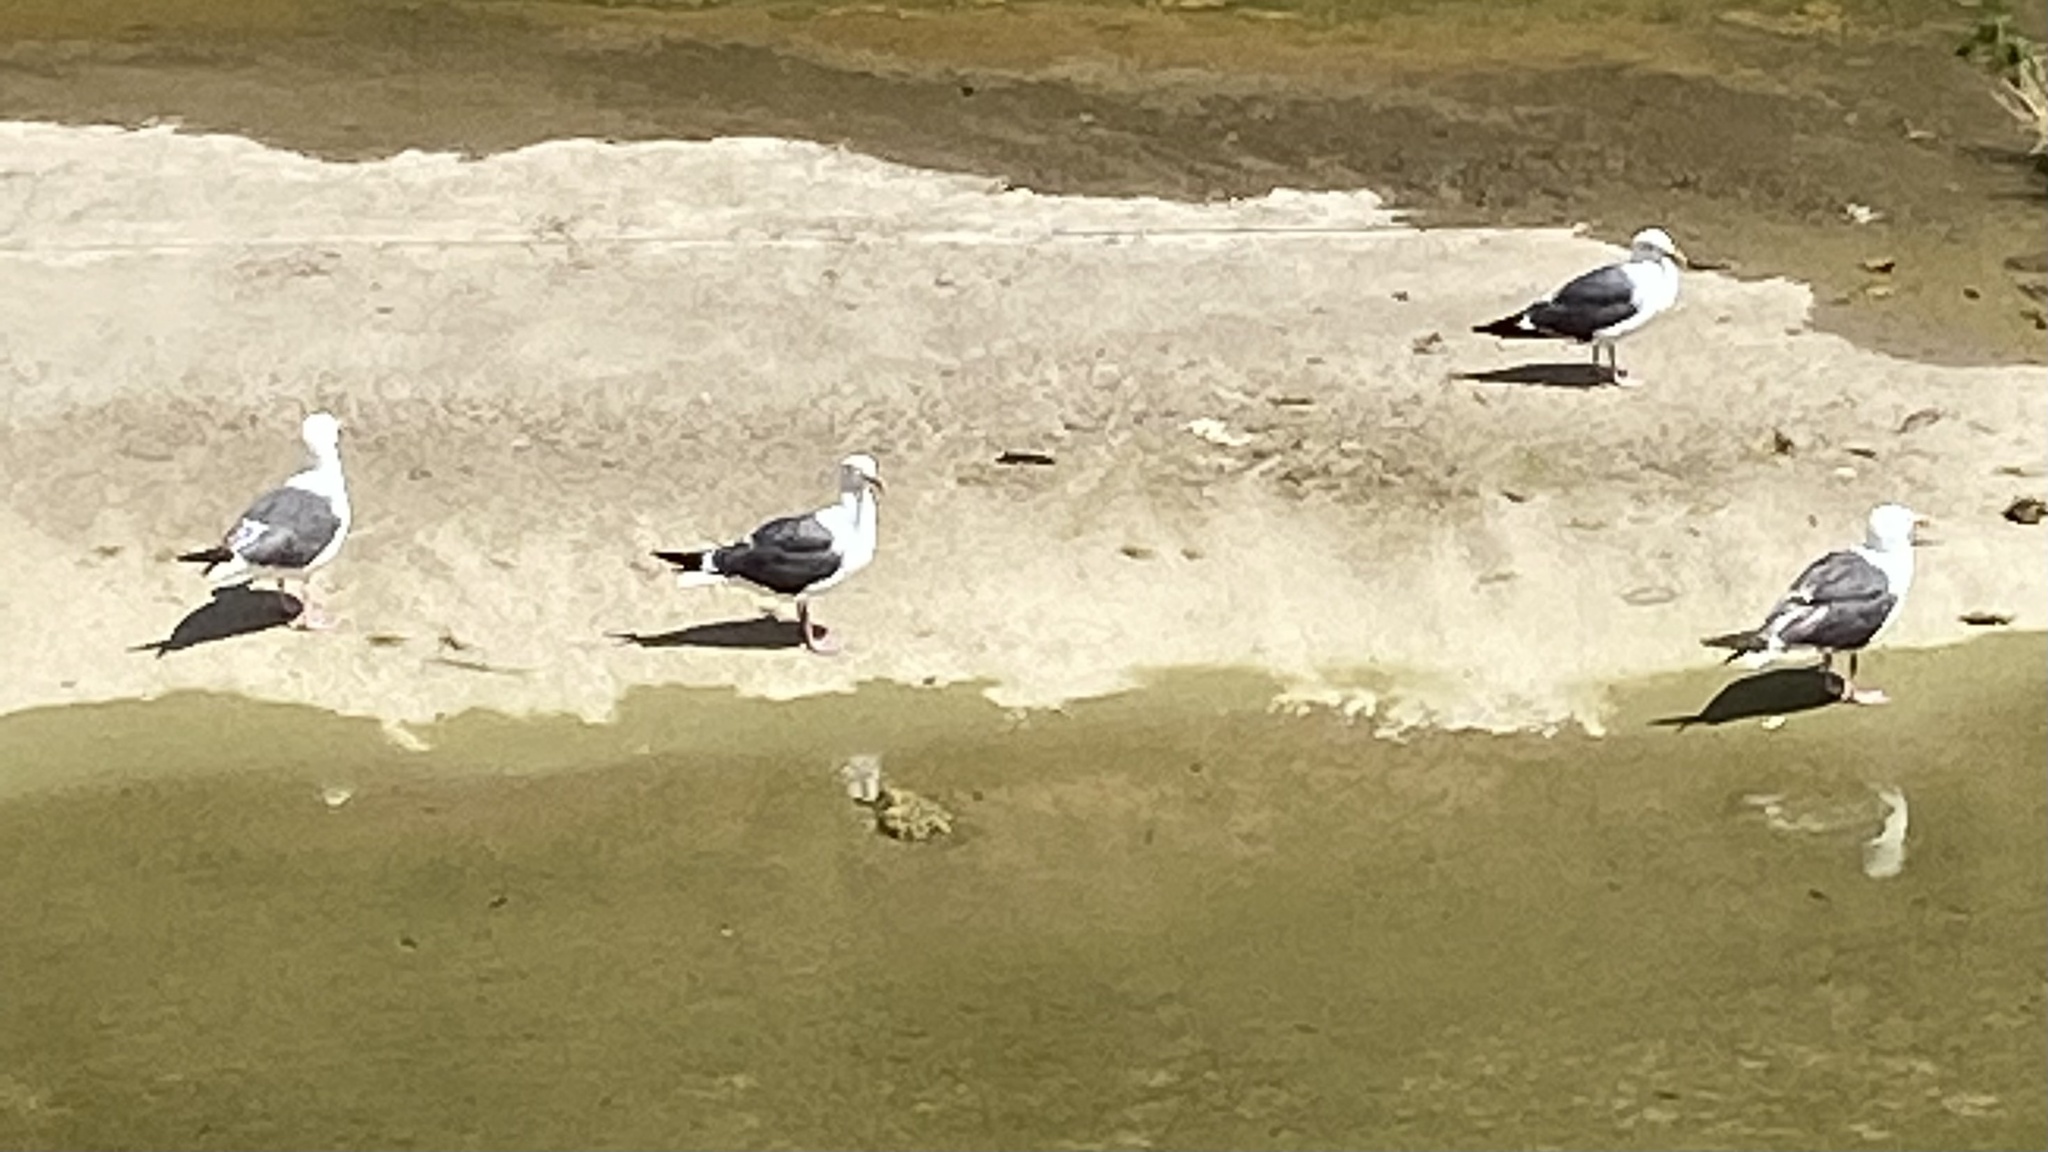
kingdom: Animalia
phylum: Chordata
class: Aves
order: Charadriiformes
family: Laridae
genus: Larus
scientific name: Larus occidentalis
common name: Western gull
